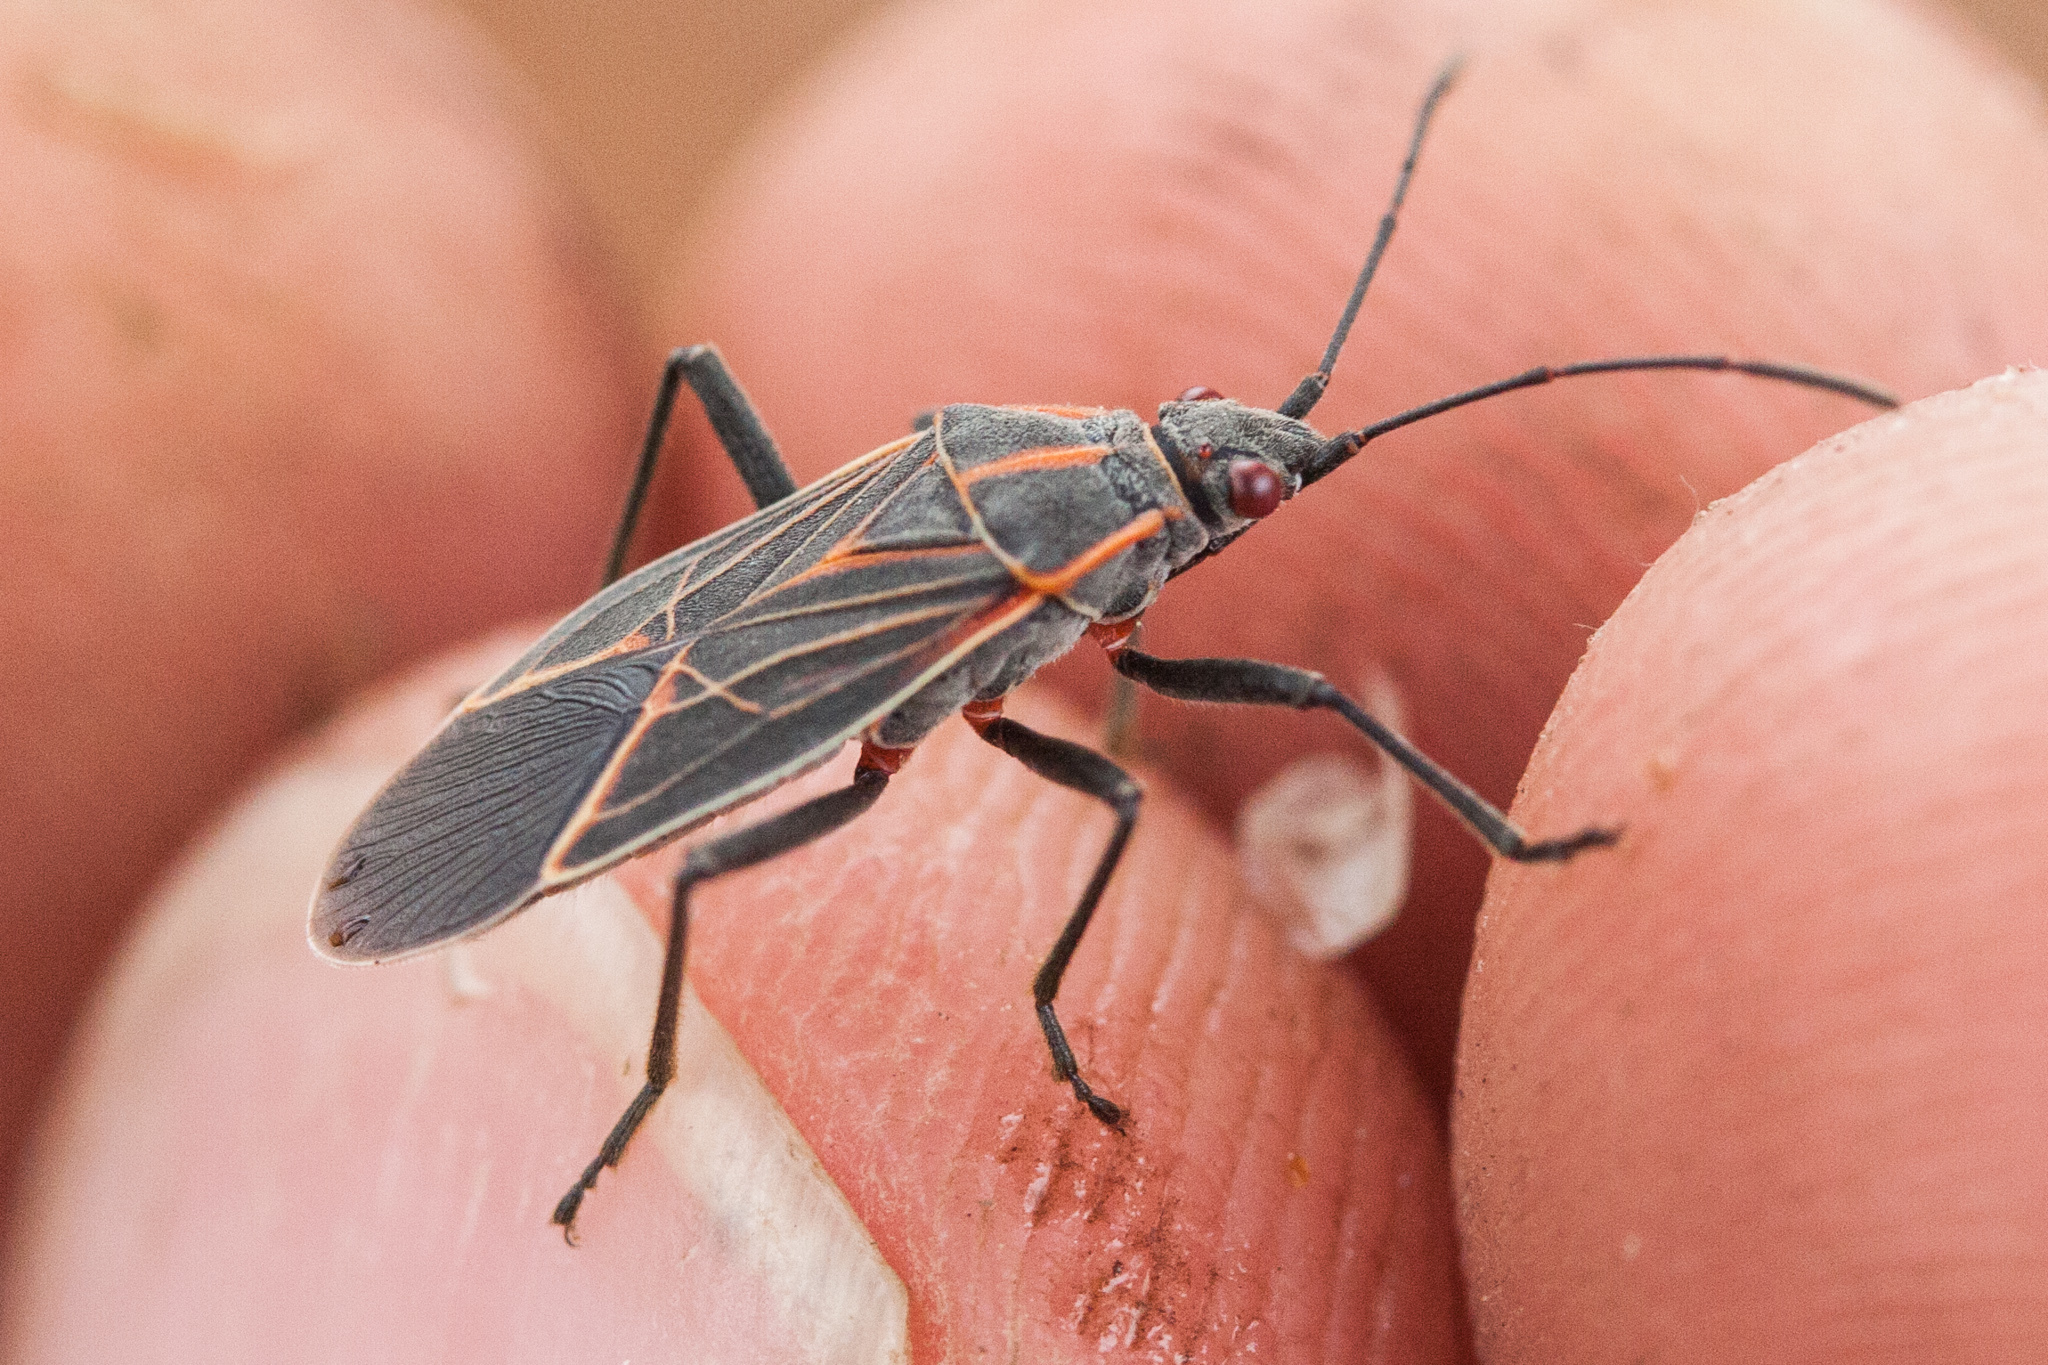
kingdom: Animalia
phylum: Arthropoda
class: Insecta
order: Hemiptera
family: Rhopalidae
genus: Boisea
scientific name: Boisea rubrolineata
